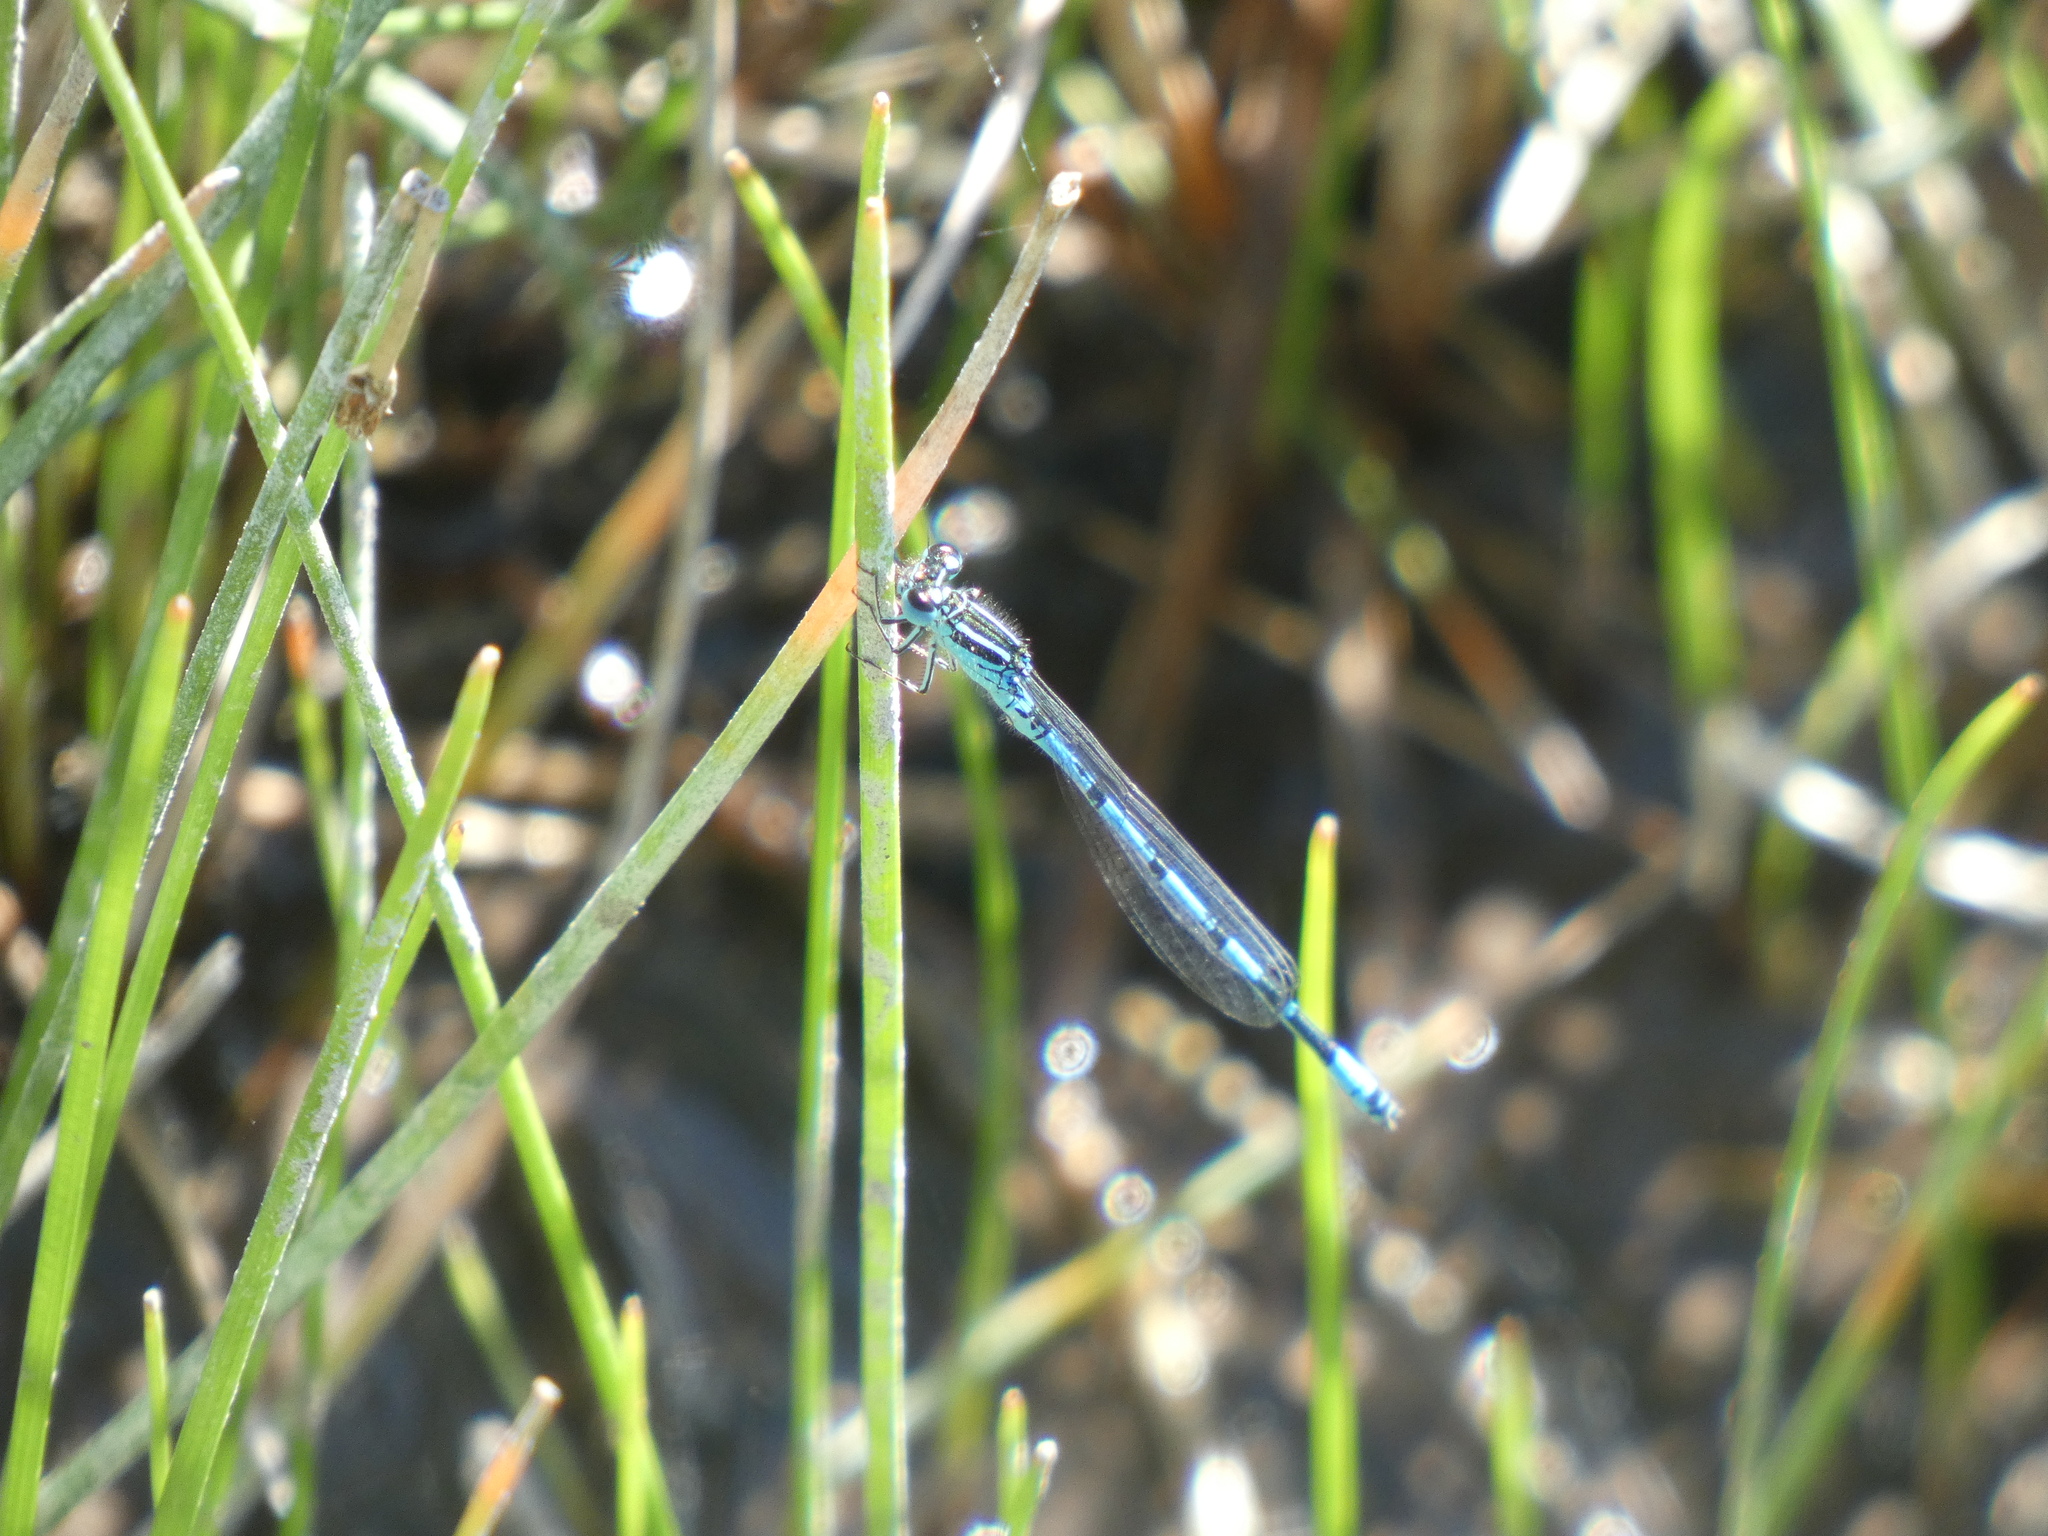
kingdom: Animalia
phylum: Arthropoda
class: Insecta
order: Odonata
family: Coenagrionidae
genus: Coenagrion
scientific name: Coenagrion mercuriale
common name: Southern damselfly
